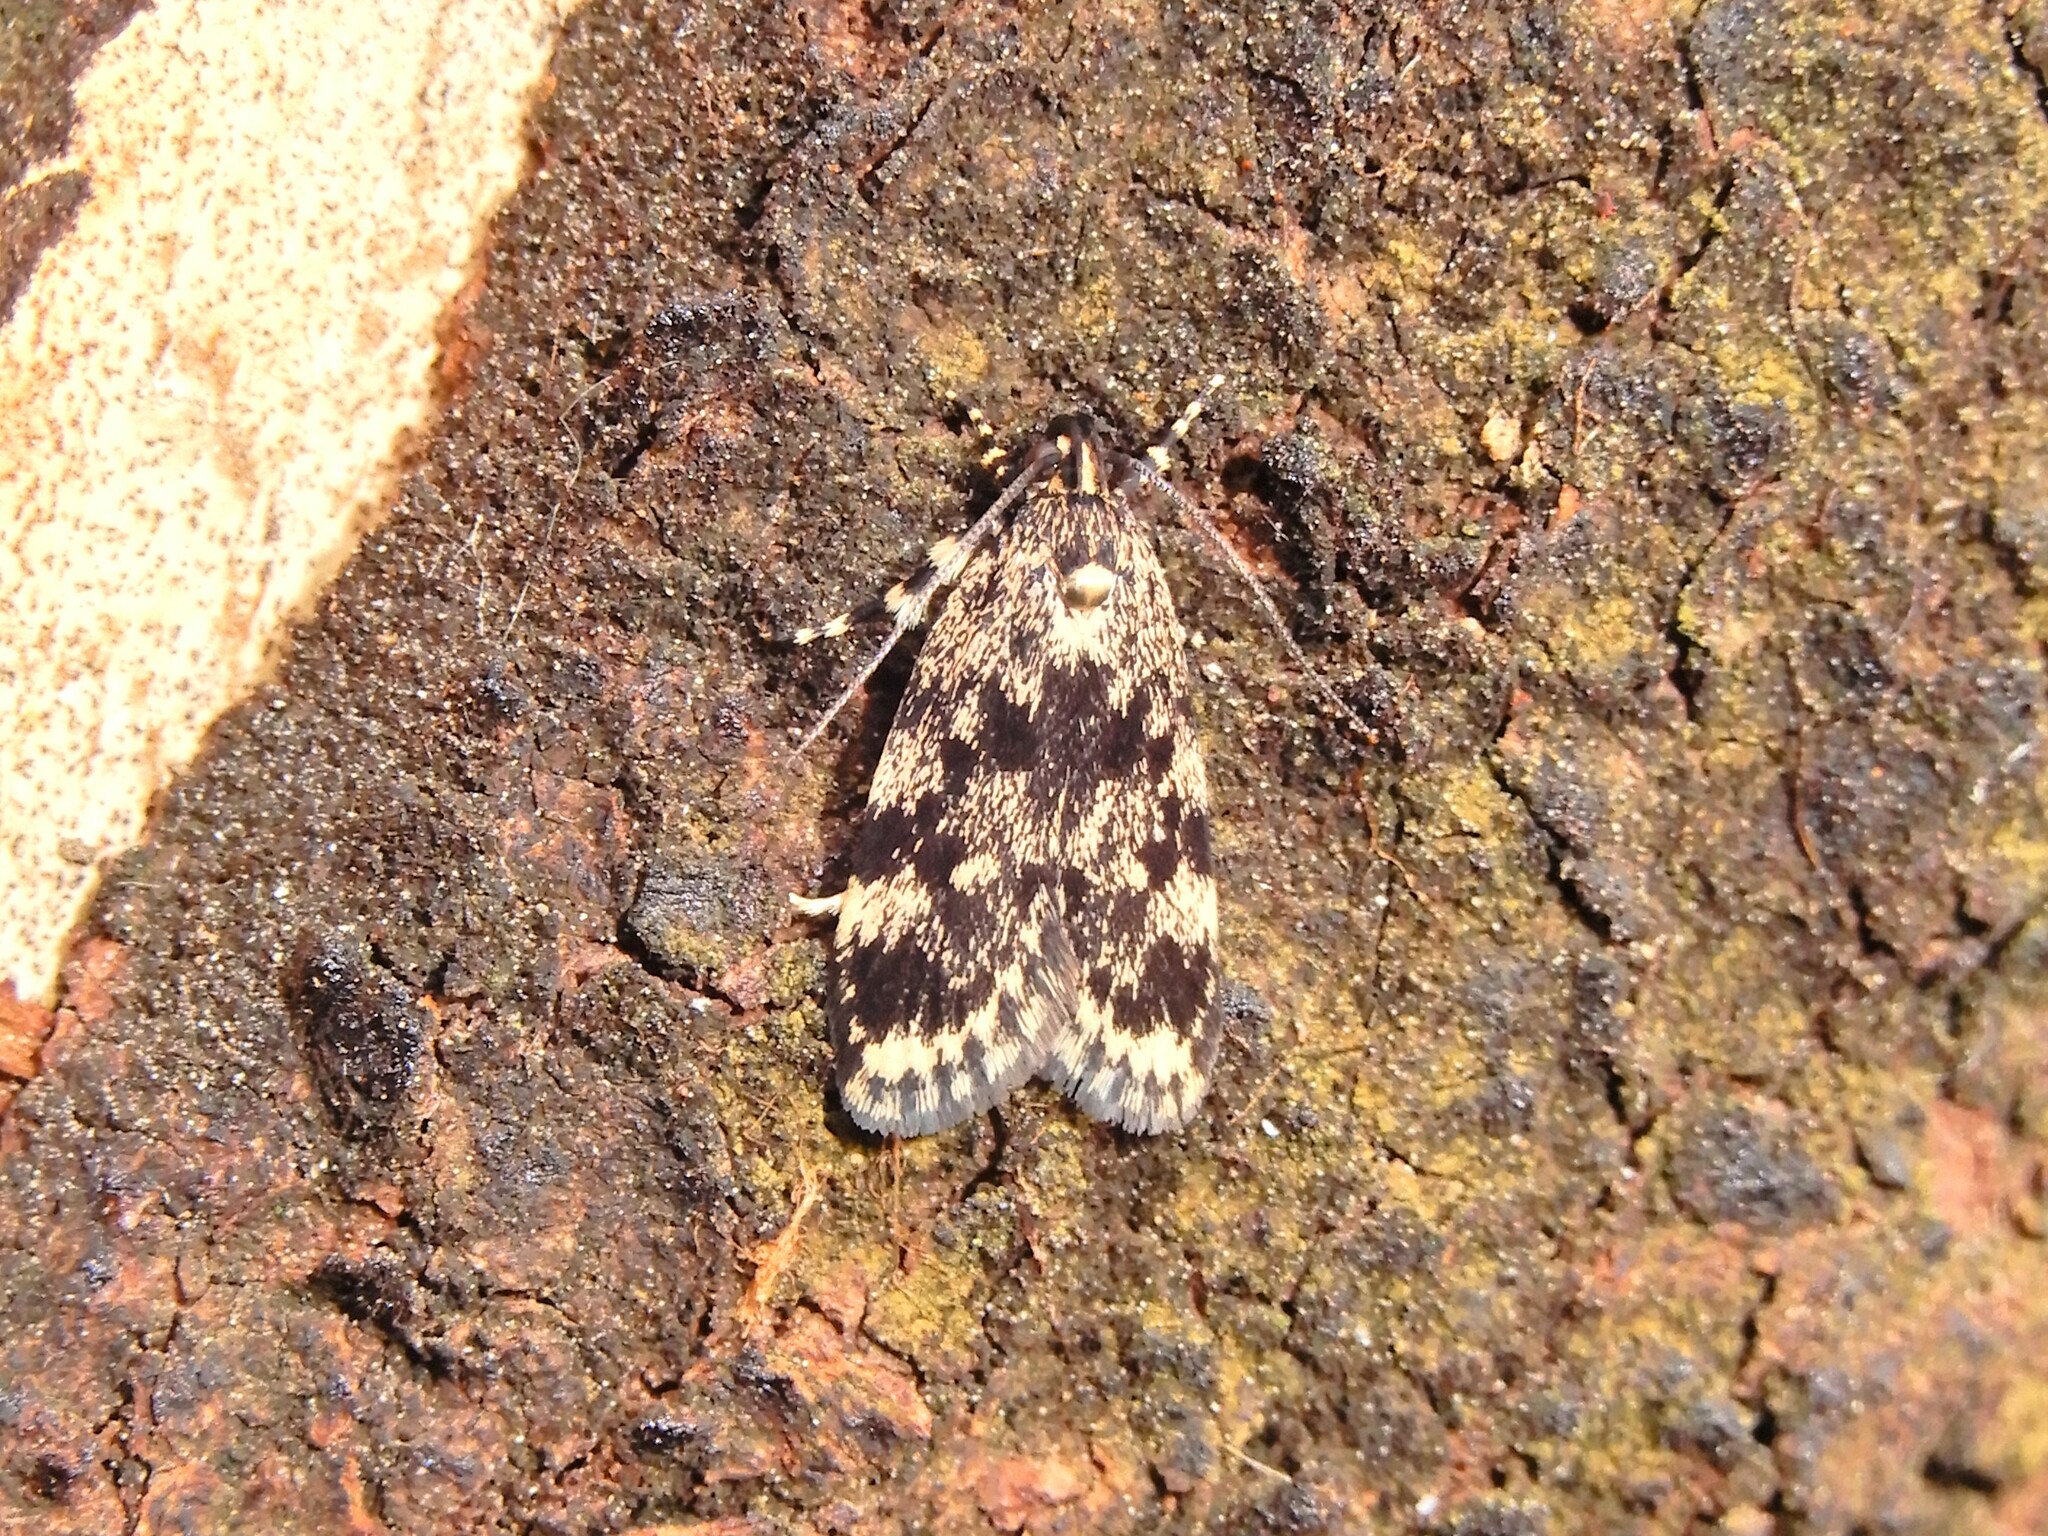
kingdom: Animalia
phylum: Arthropoda
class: Insecta
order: Lepidoptera
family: Oecophoridae
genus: Barea
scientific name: Barea codrella
